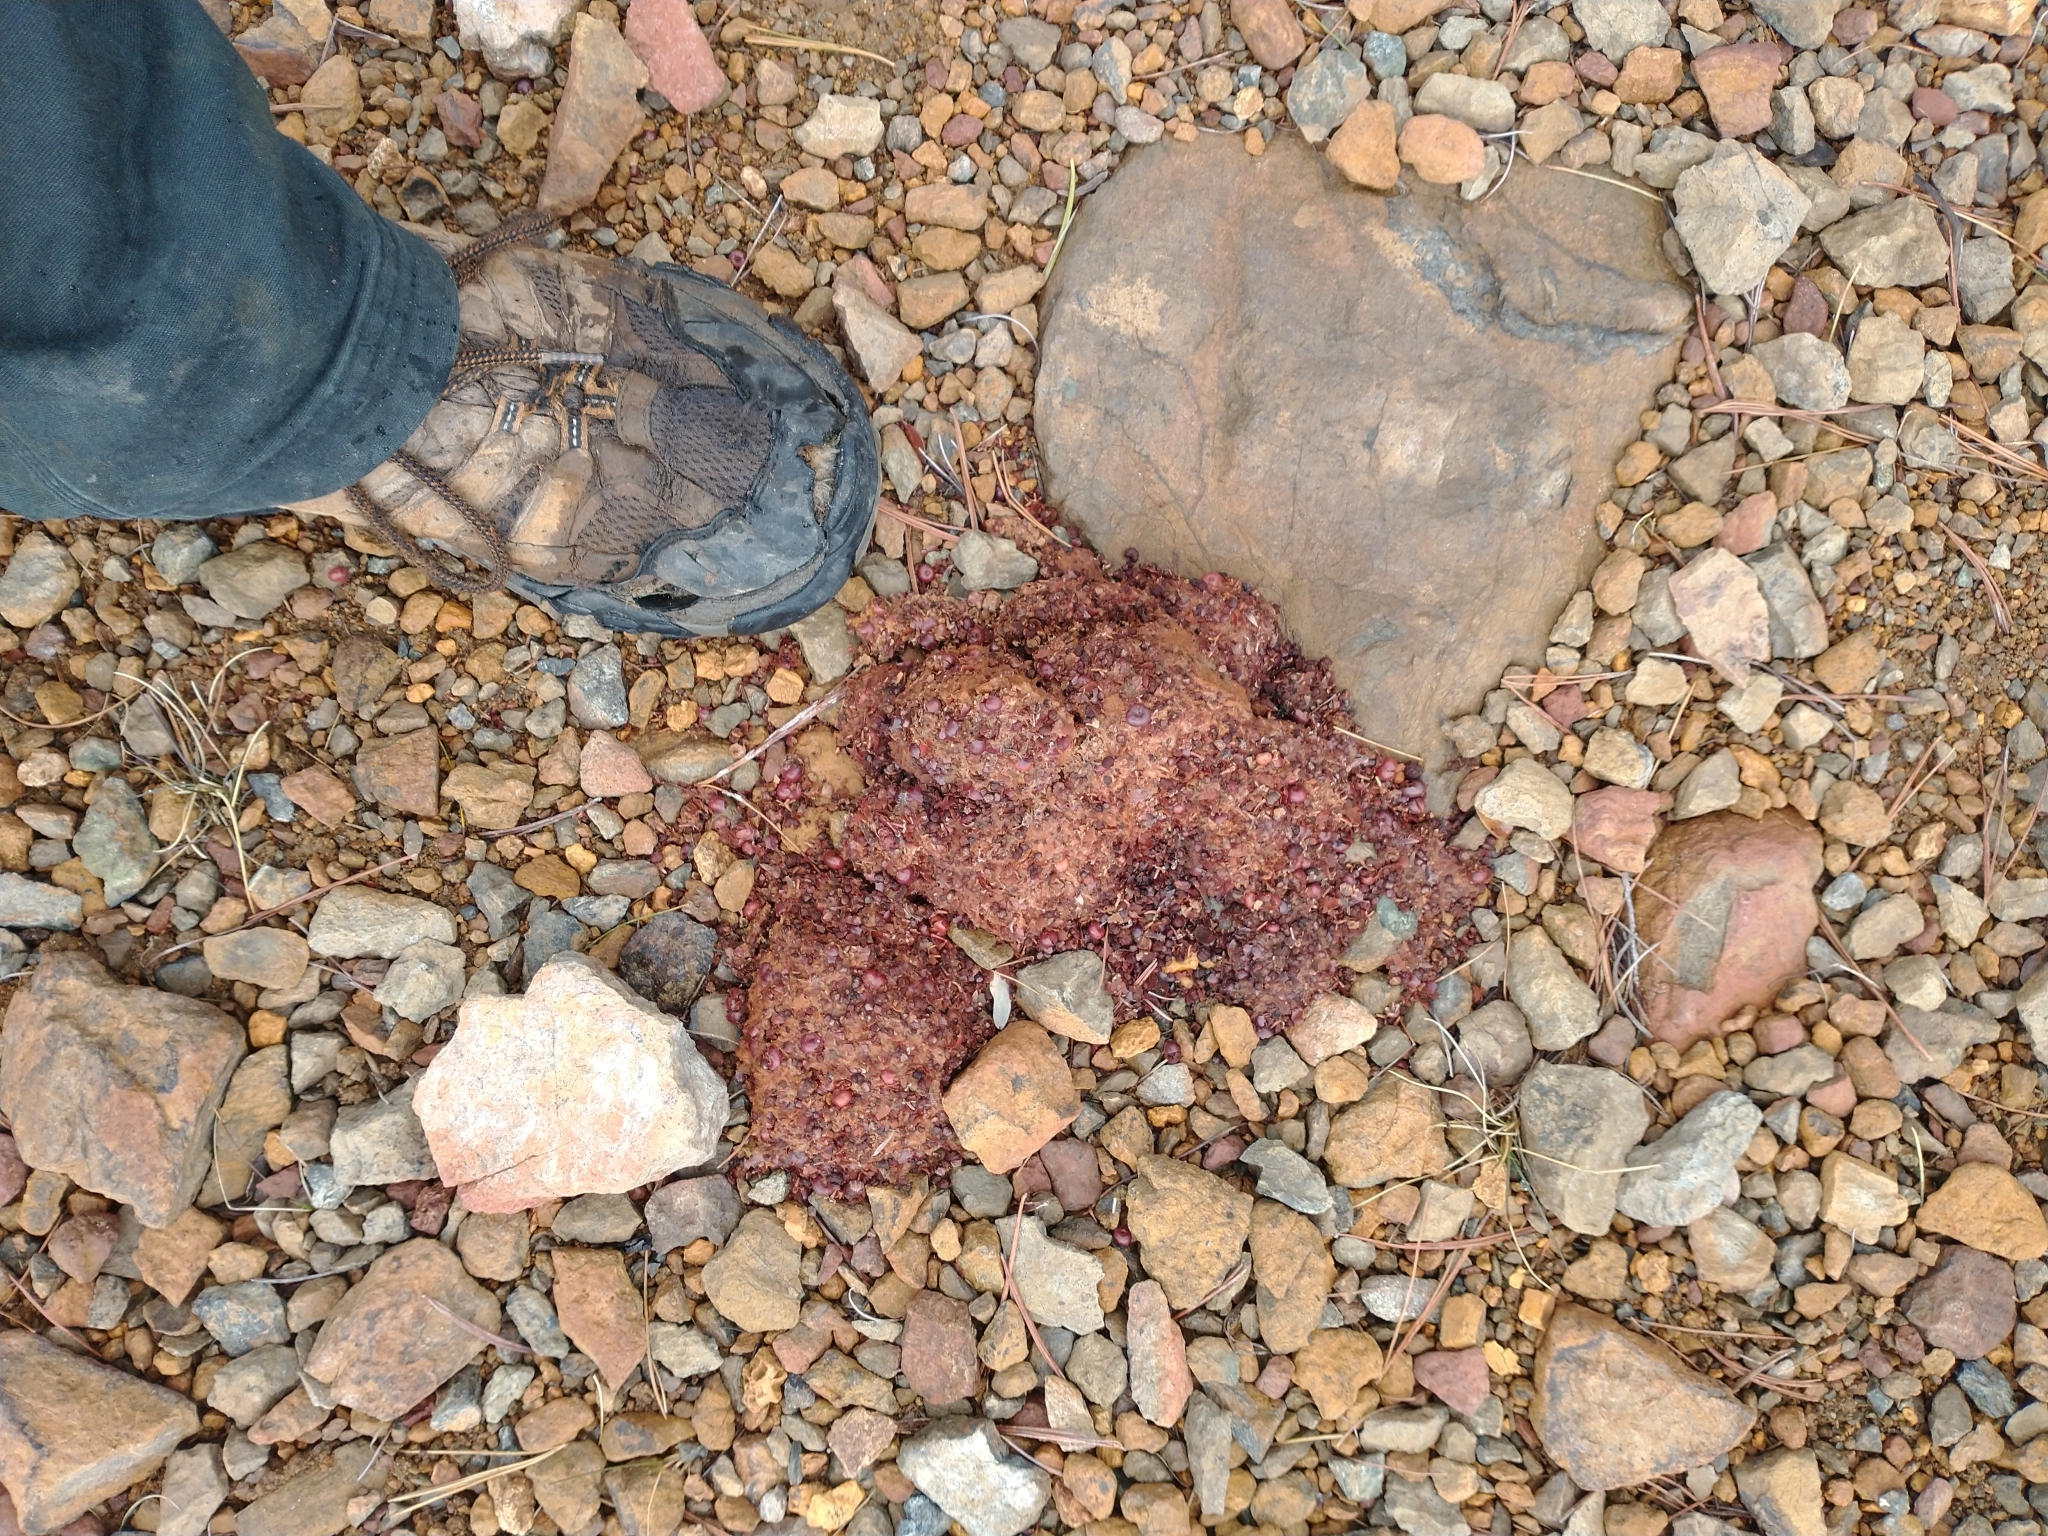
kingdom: Animalia
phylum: Chordata
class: Mammalia
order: Carnivora
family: Ursidae
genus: Ursus
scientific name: Ursus americanus
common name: American black bear
